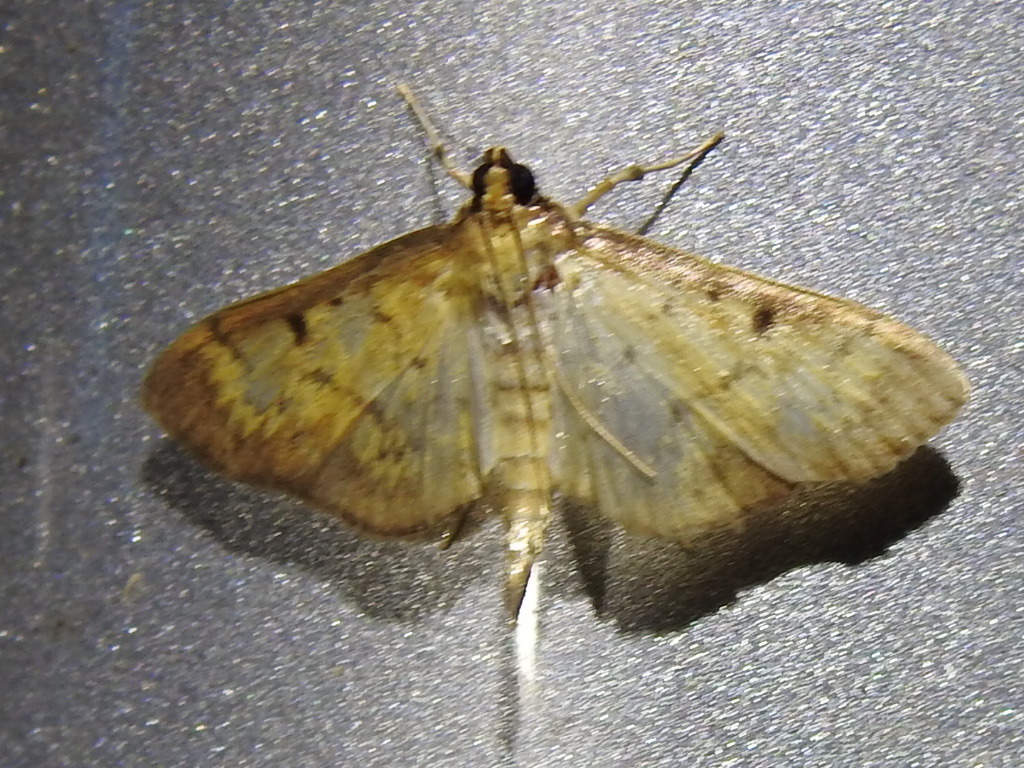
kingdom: Animalia
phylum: Arthropoda
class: Insecta
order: Lepidoptera
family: Crambidae
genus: Herpetogramma
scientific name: Herpetogramma fluctuosalis
